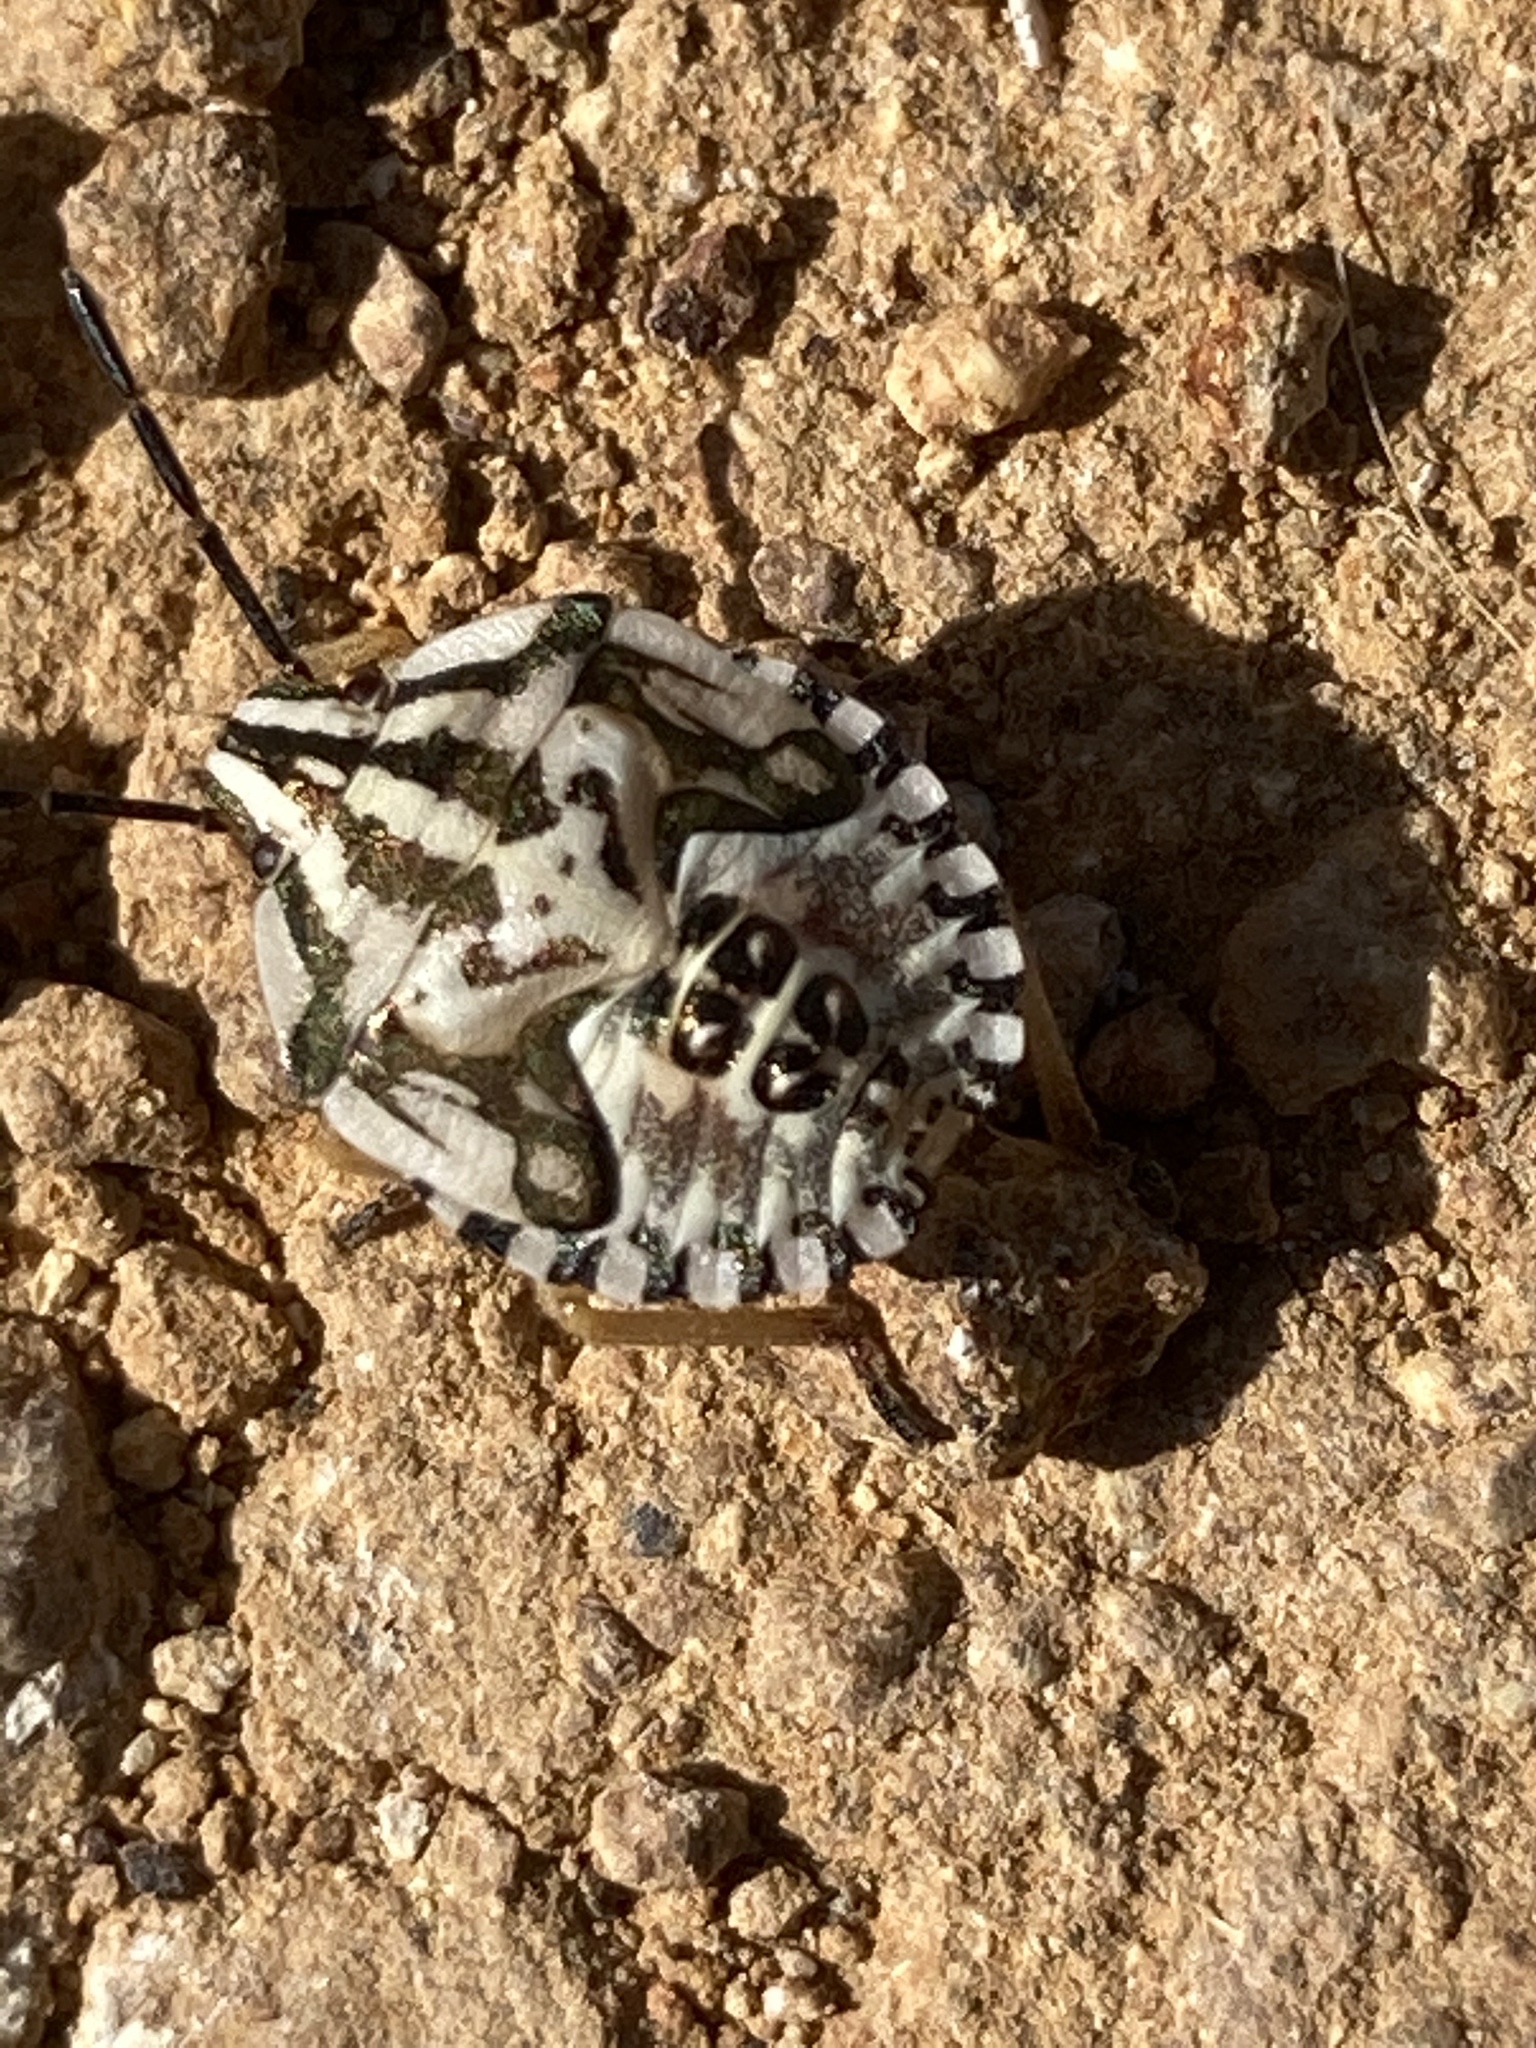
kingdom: Animalia
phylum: Arthropoda
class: Insecta
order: Hemiptera
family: Pentatomidae
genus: Carpocoris
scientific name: Carpocoris mediterraneus
